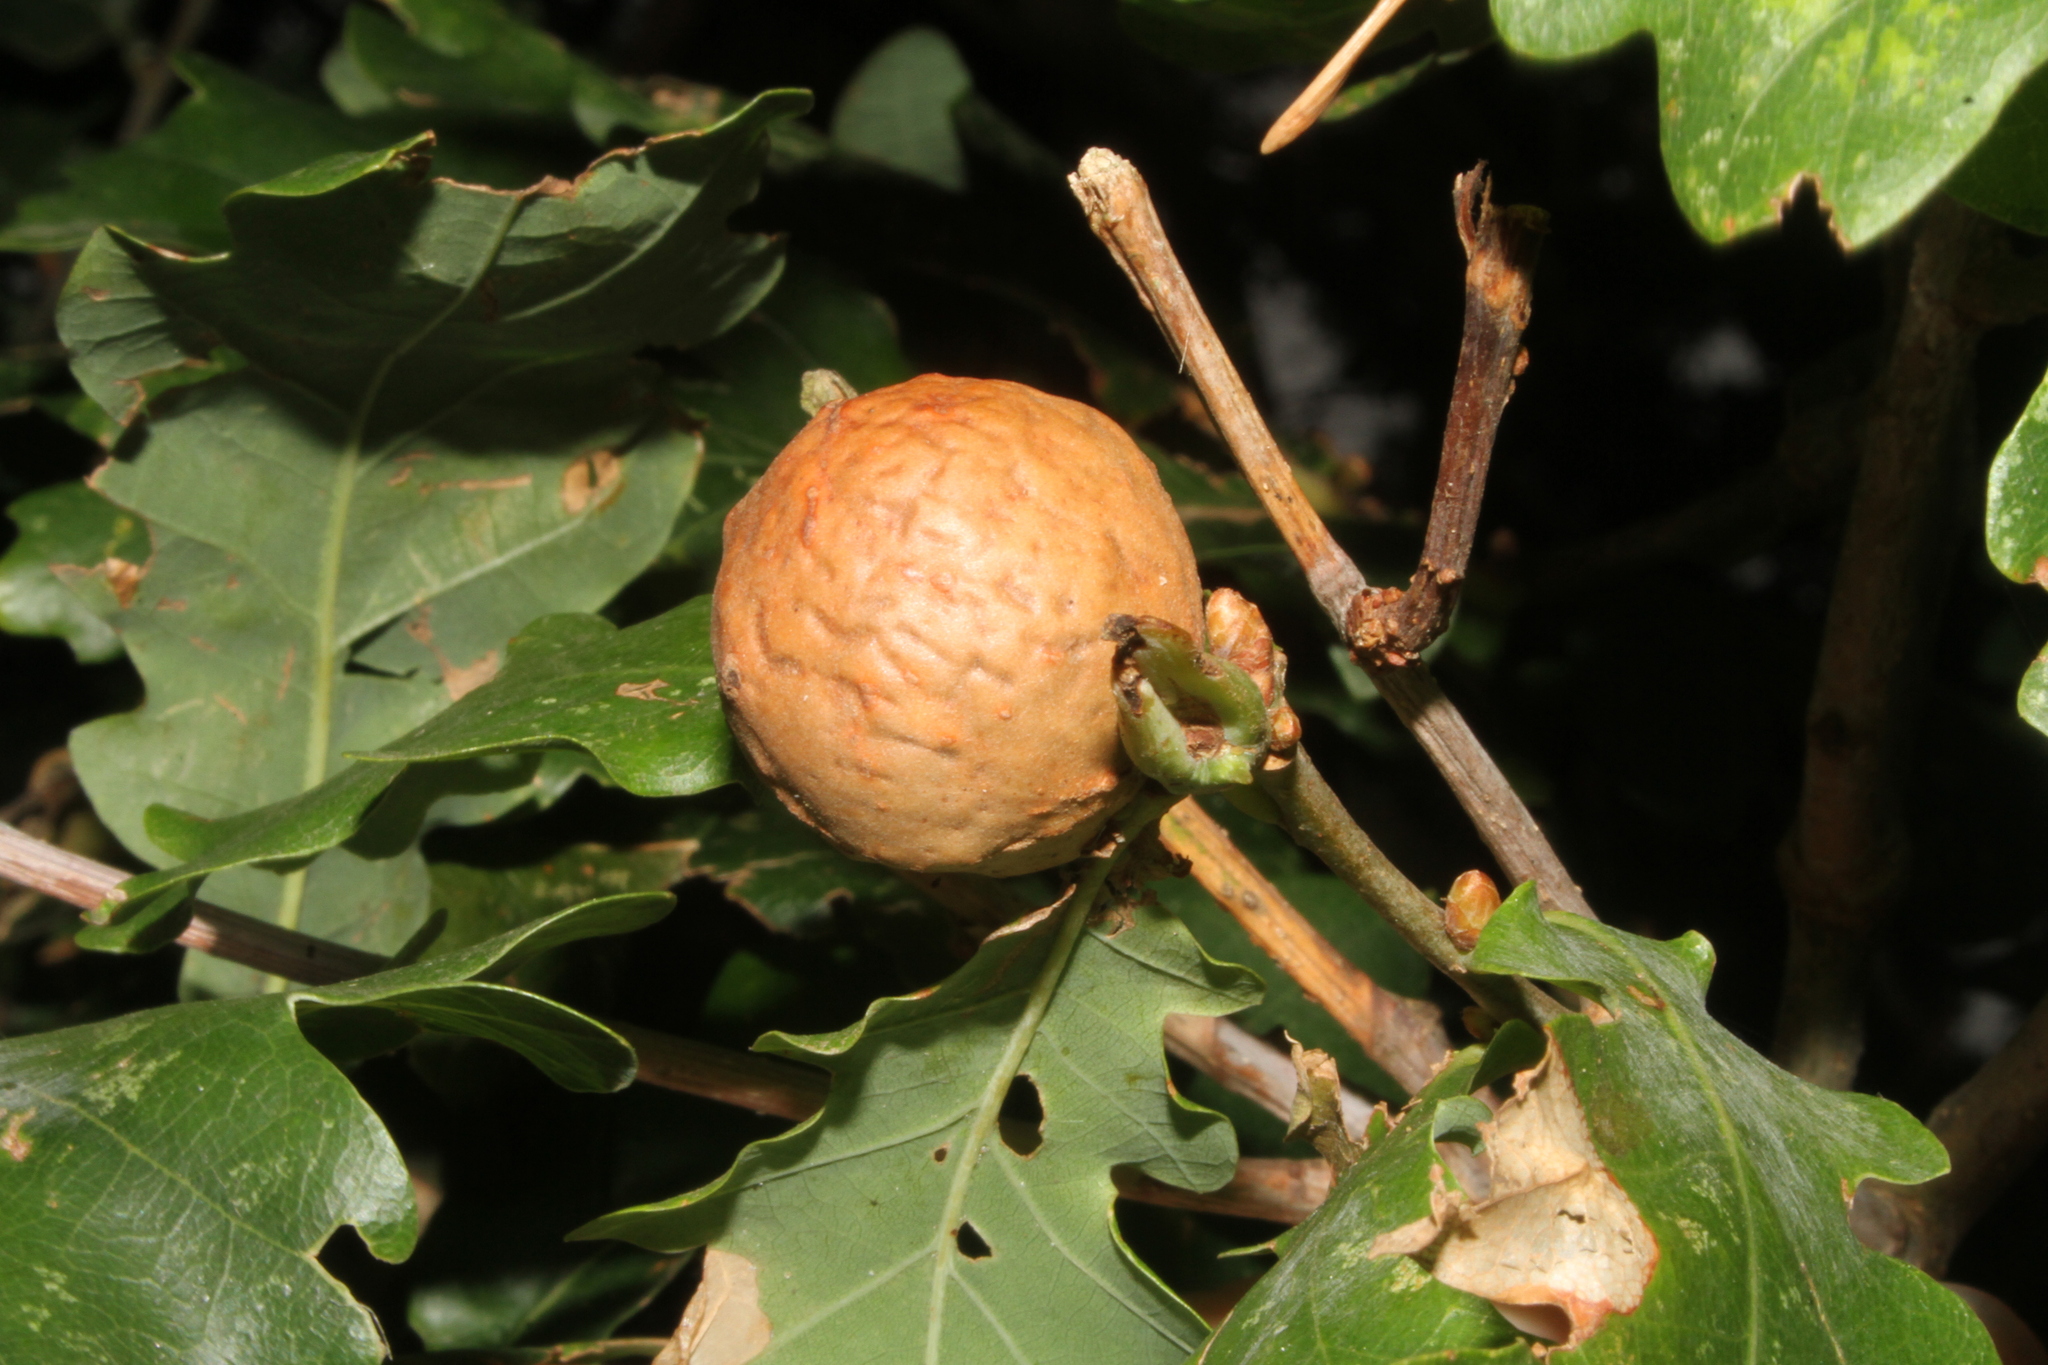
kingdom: Animalia
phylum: Arthropoda
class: Insecta
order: Hymenoptera
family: Cynipidae
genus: Andricus
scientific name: Andricus kollari
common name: Marble gall
